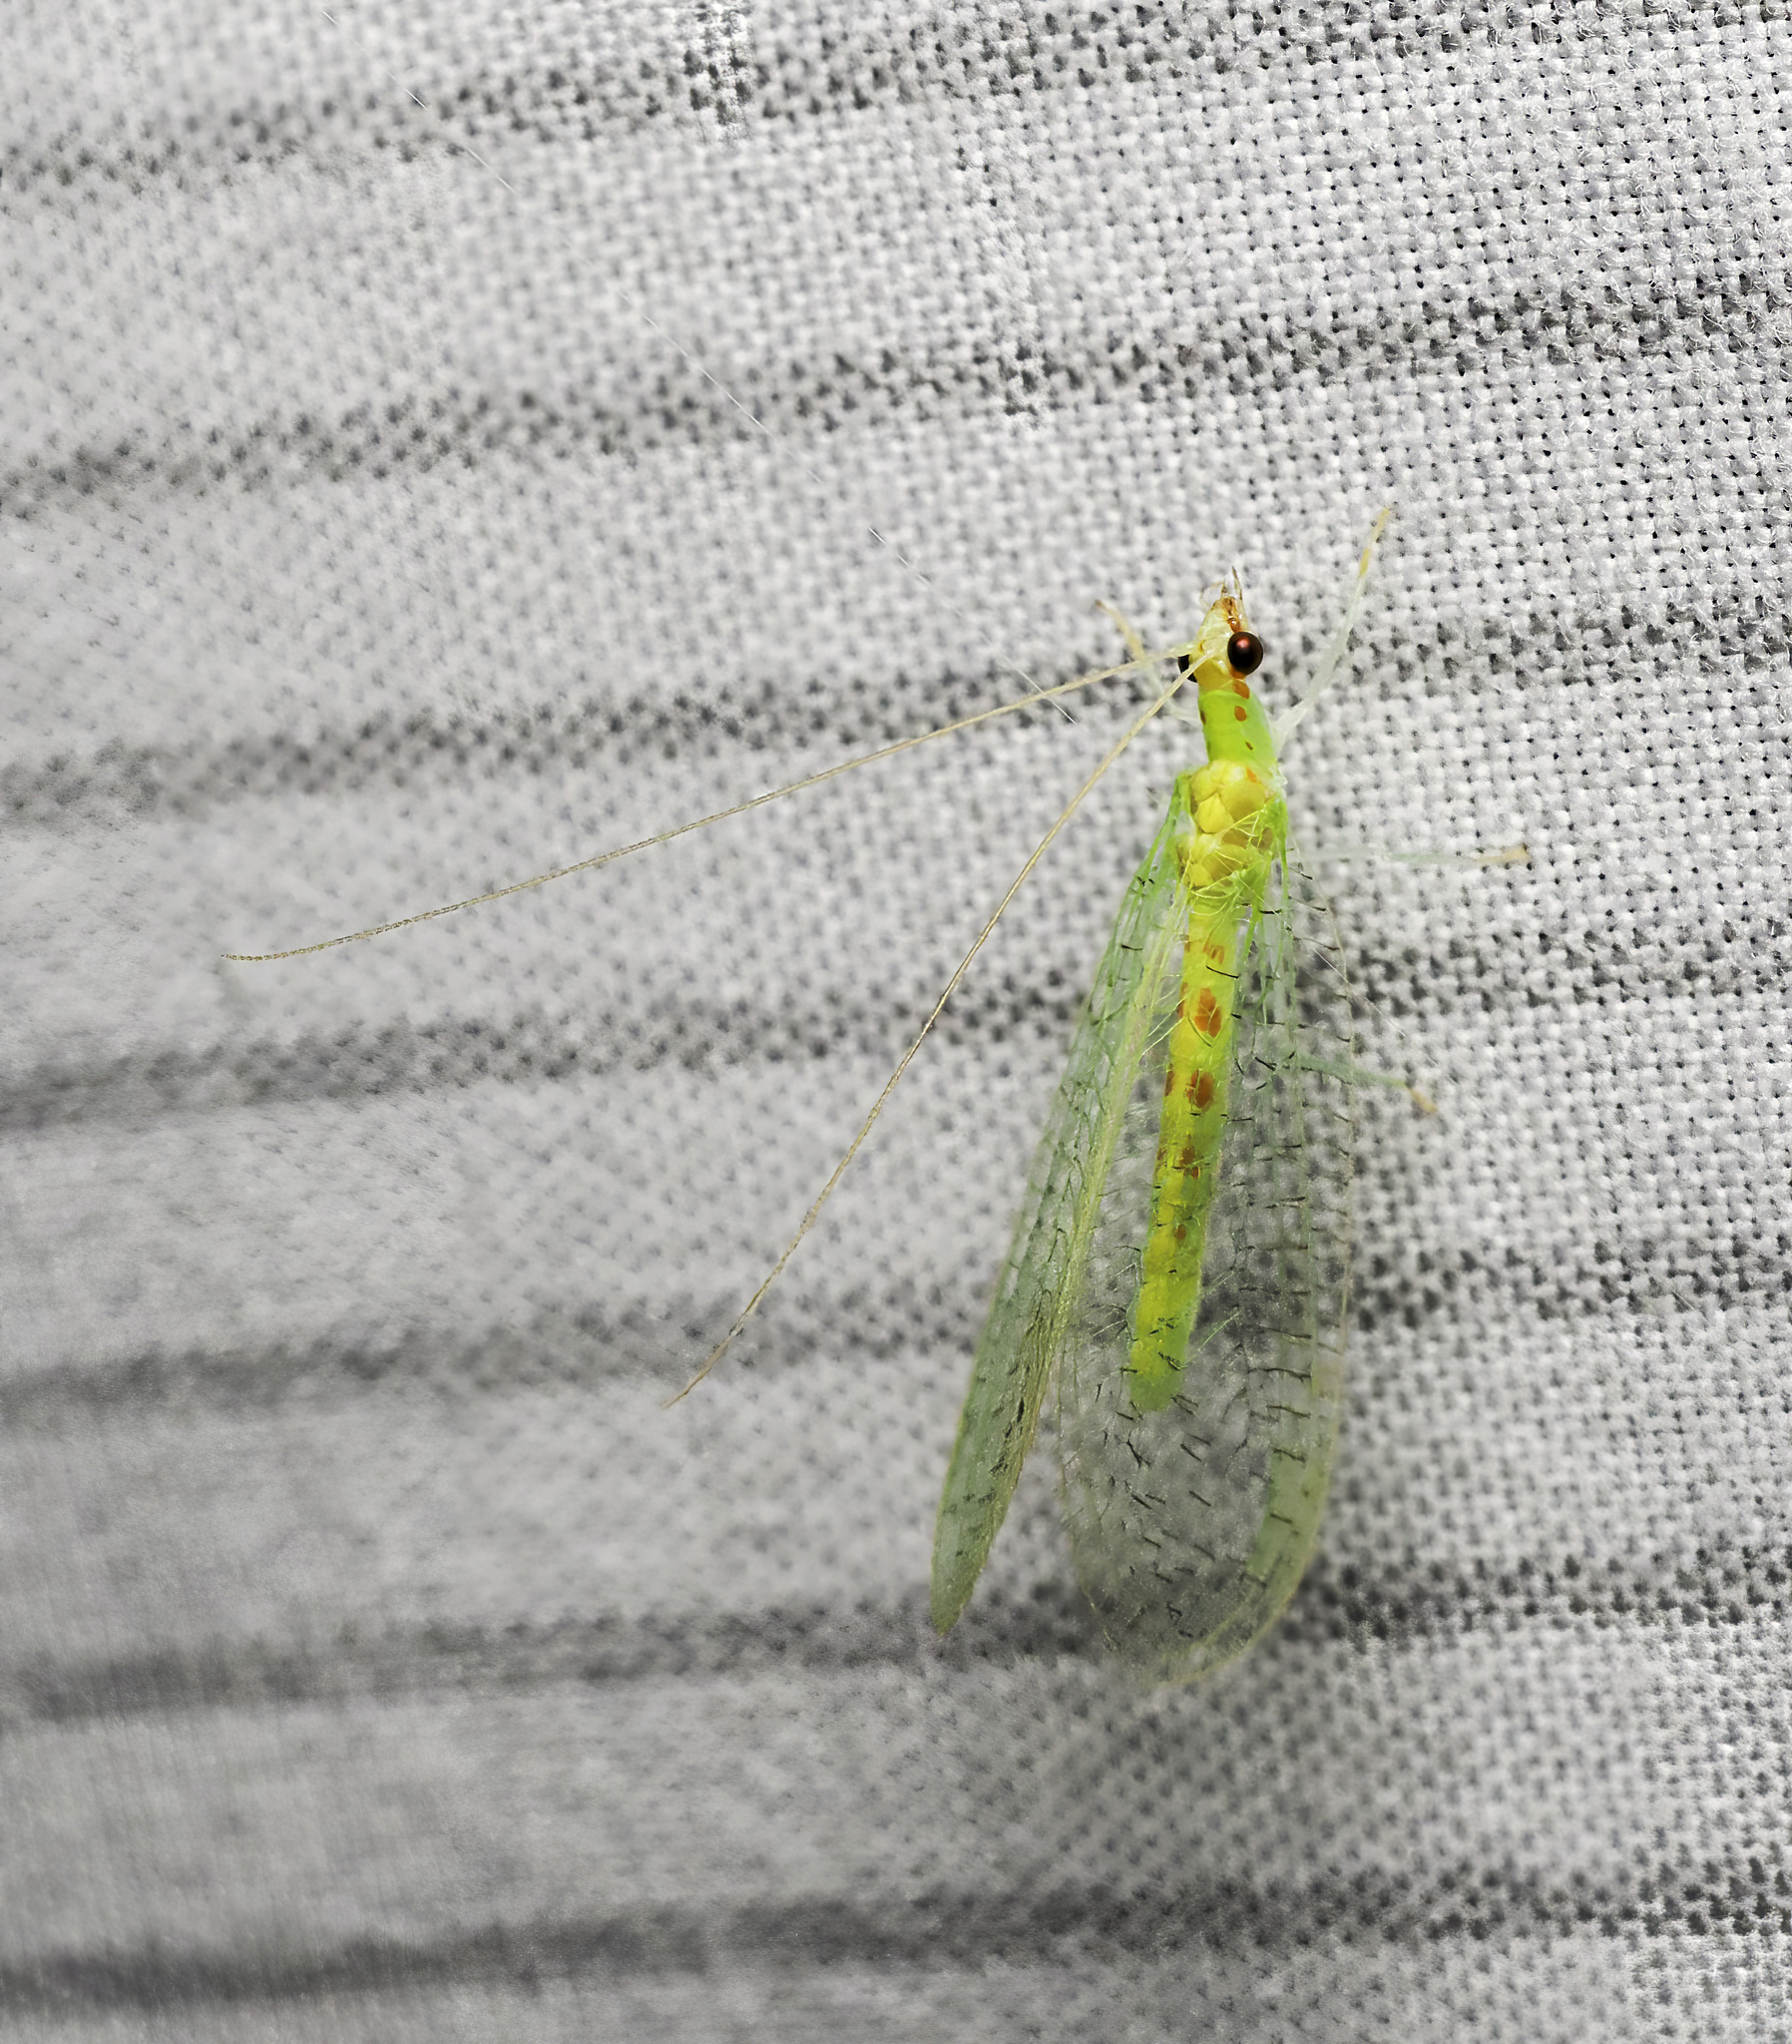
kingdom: Animalia
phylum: Arthropoda
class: Insecta
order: Neuroptera
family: Chrysopidae
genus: Chrysopa
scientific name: Chrysopa quadripunctata
